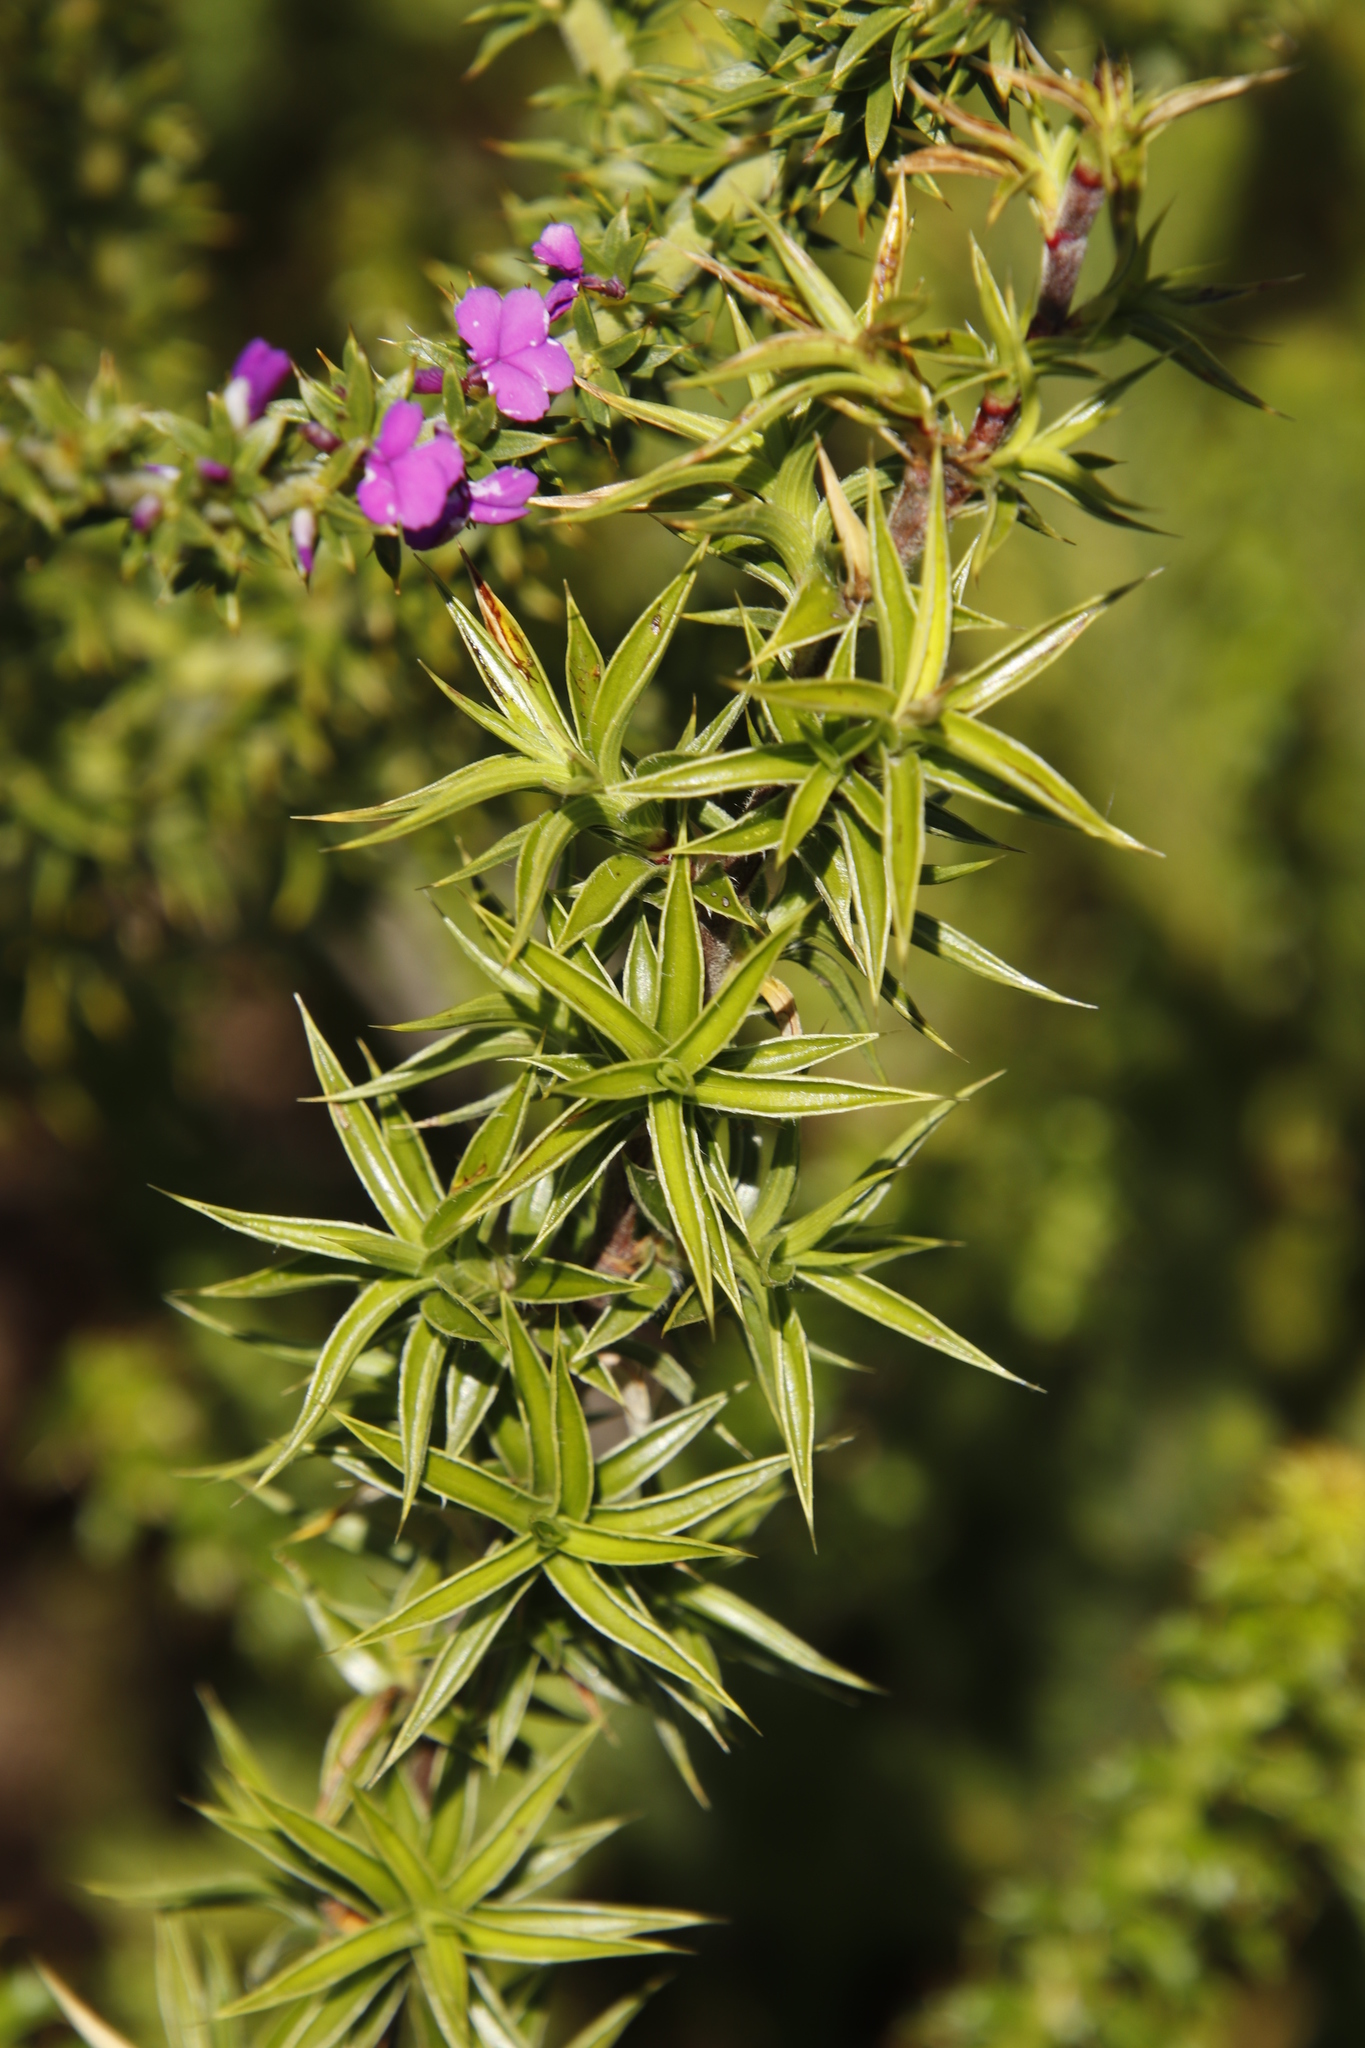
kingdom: Plantae
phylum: Tracheophyta
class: Magnoliopsida
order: Rosales
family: Rosaceae
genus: Cliffortia
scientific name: Cliffortia ruscifolia
